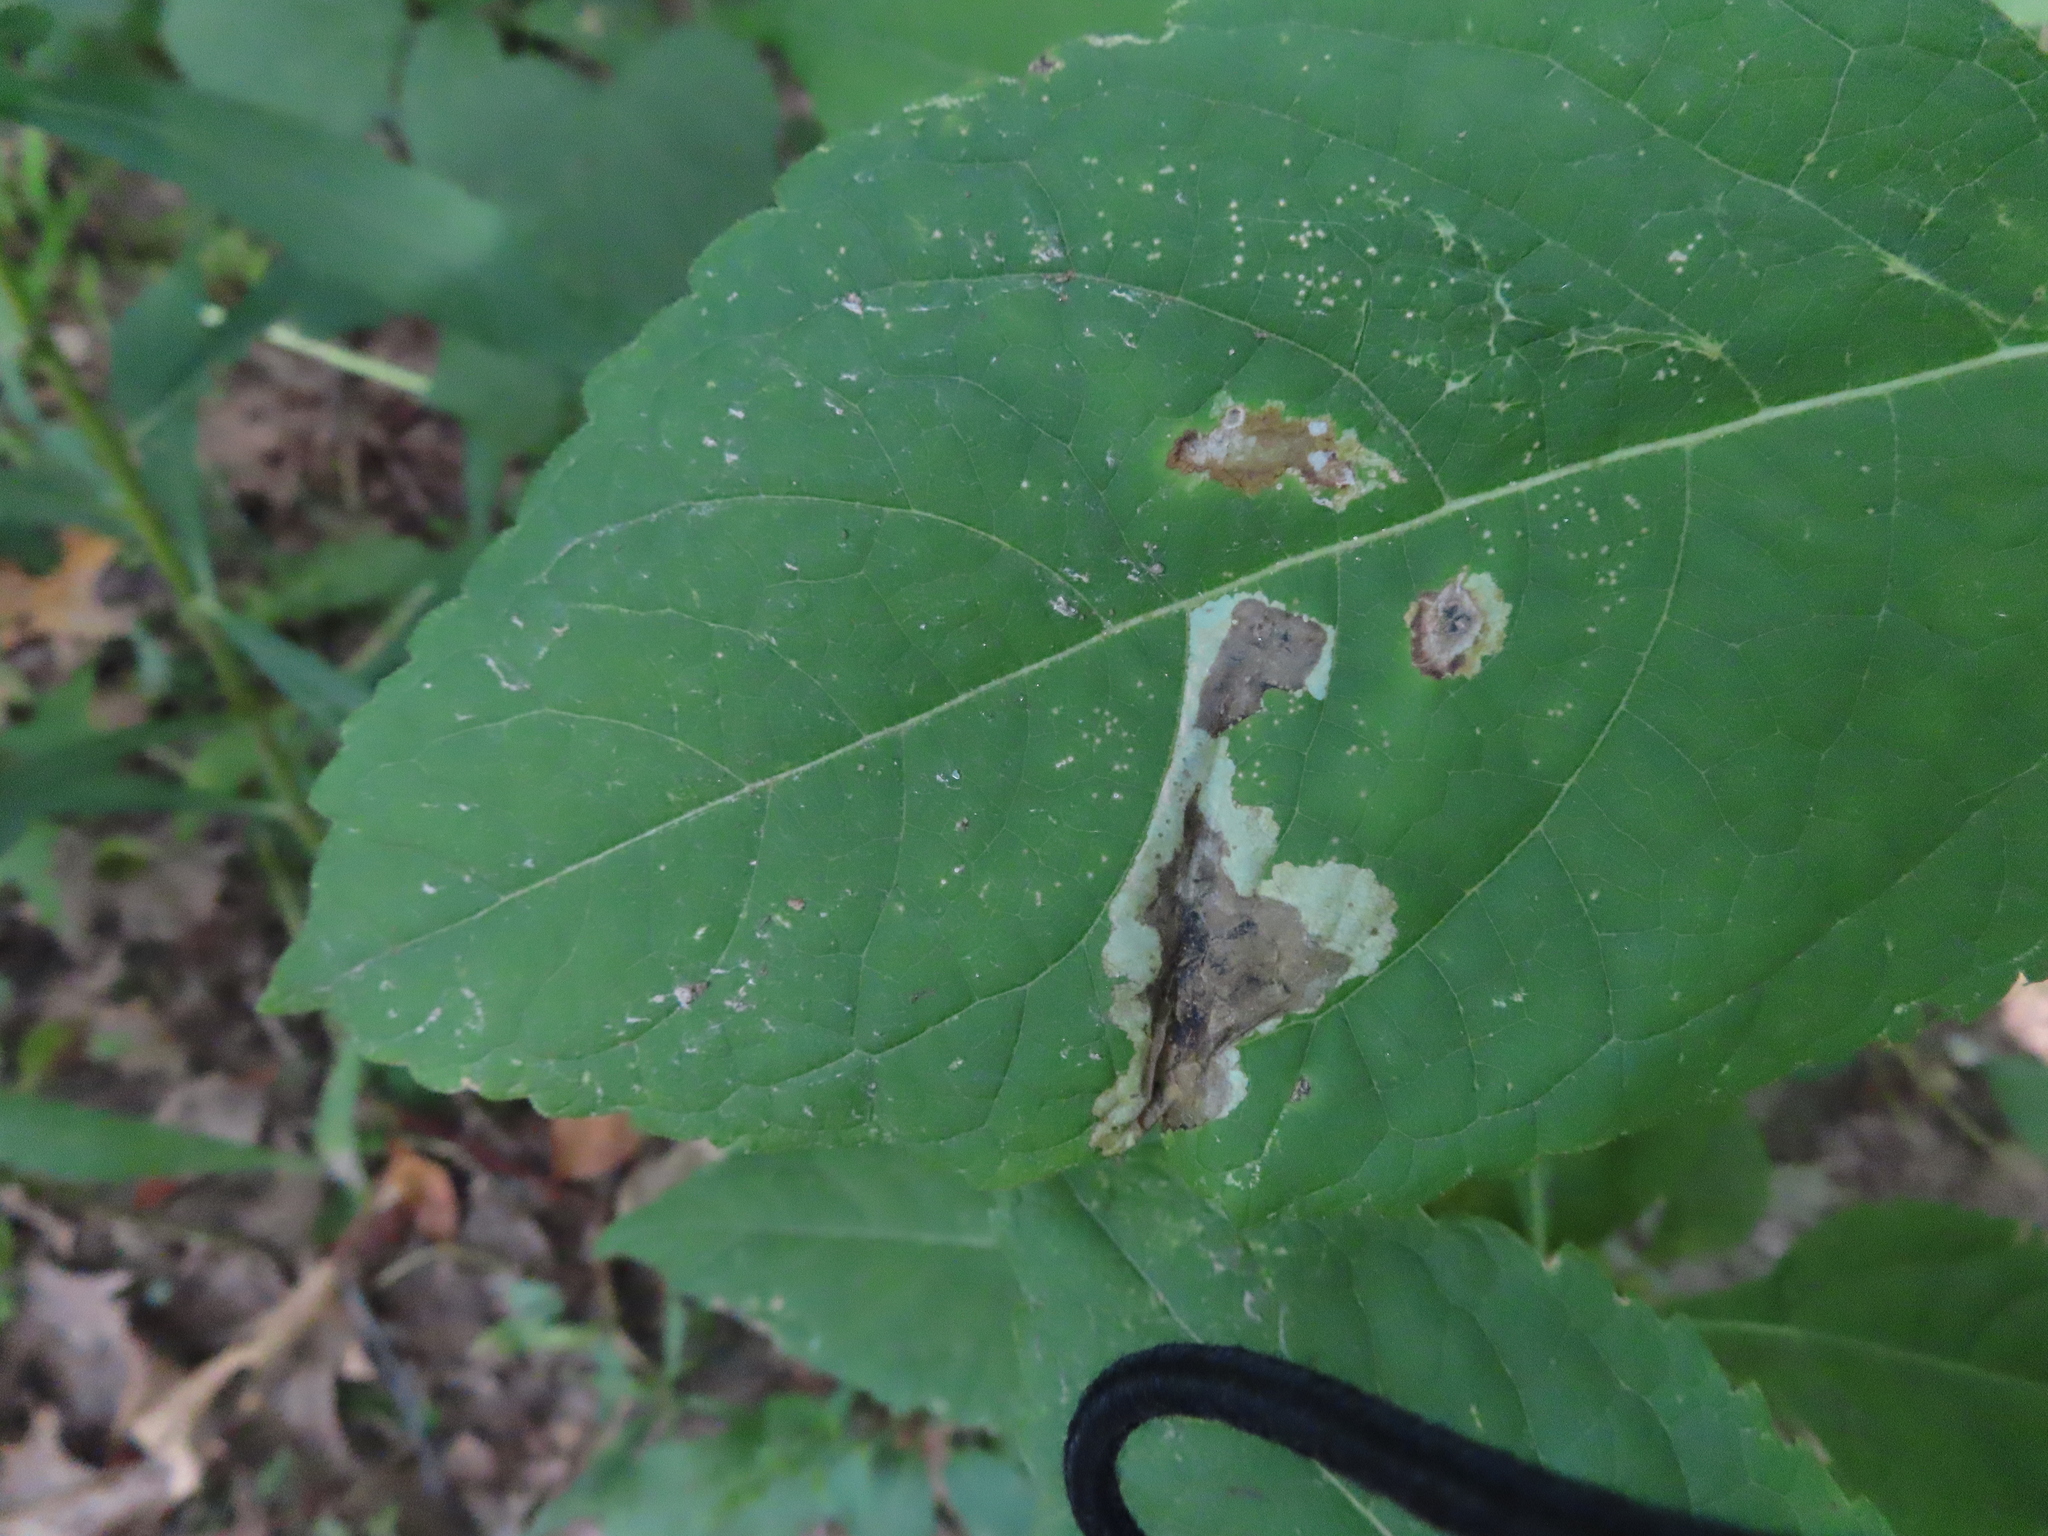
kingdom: Animalia
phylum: Arthropoda
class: Insecta
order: Diptera
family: Agromyzidae
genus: Calycomyza
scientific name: Calycomyza flavinotum
